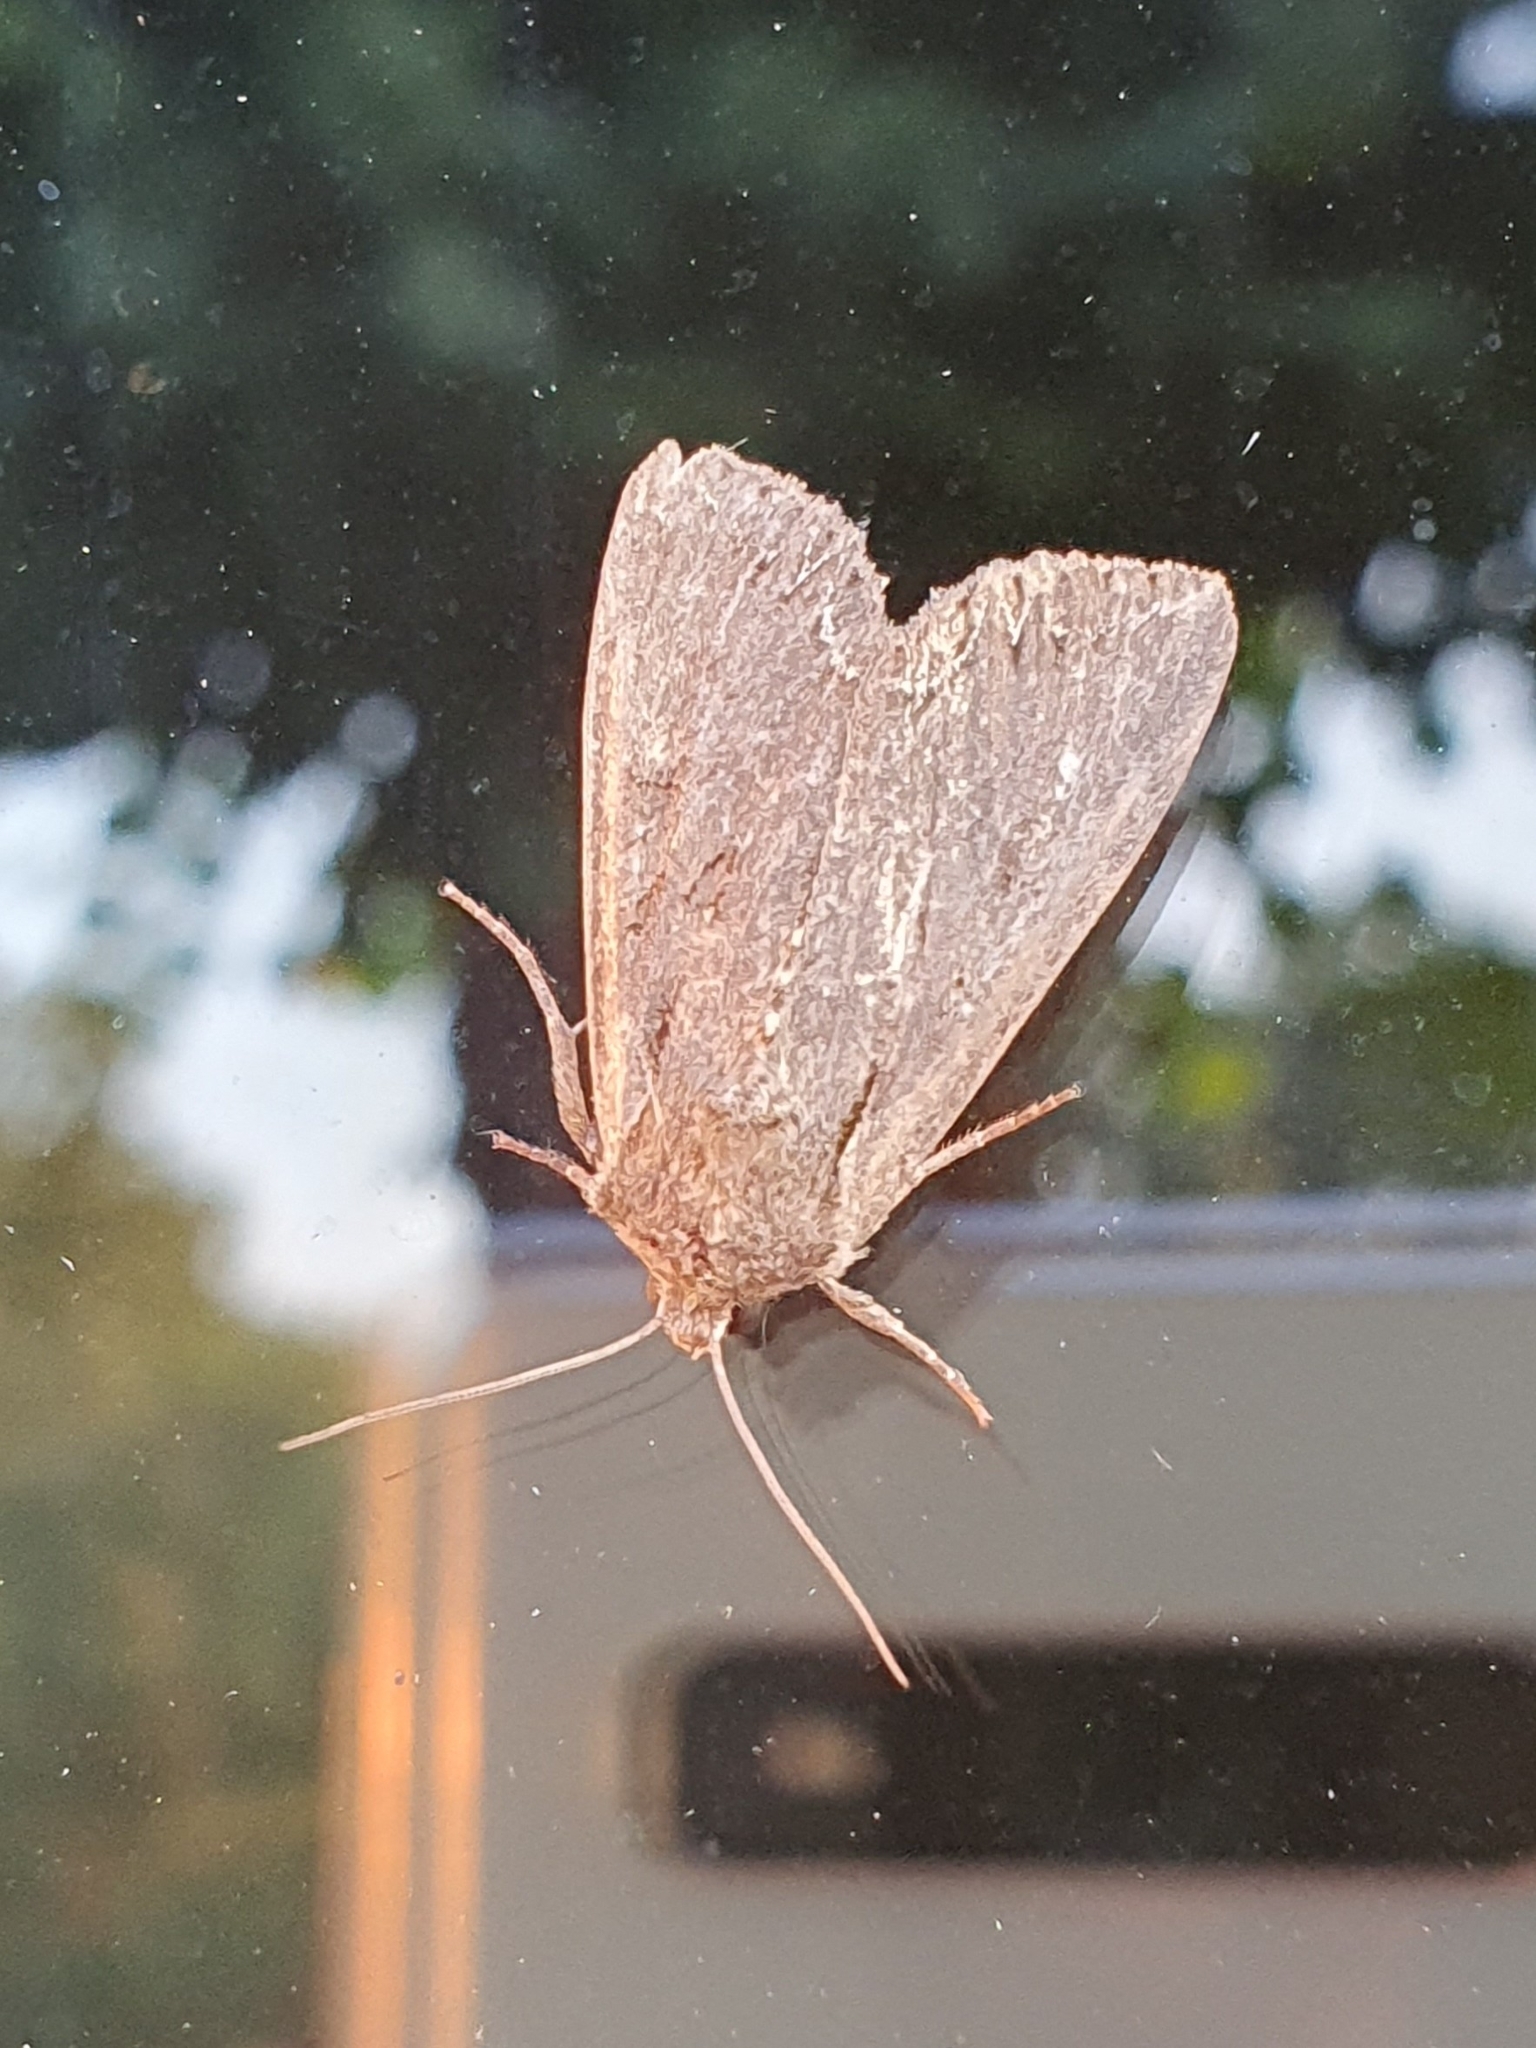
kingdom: Animalia
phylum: Arthropoda
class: Insecta
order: Lepidoptera
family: Noctuidae
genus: Lacanobia
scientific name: Lacanobia suasa
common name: Dog's tooth
